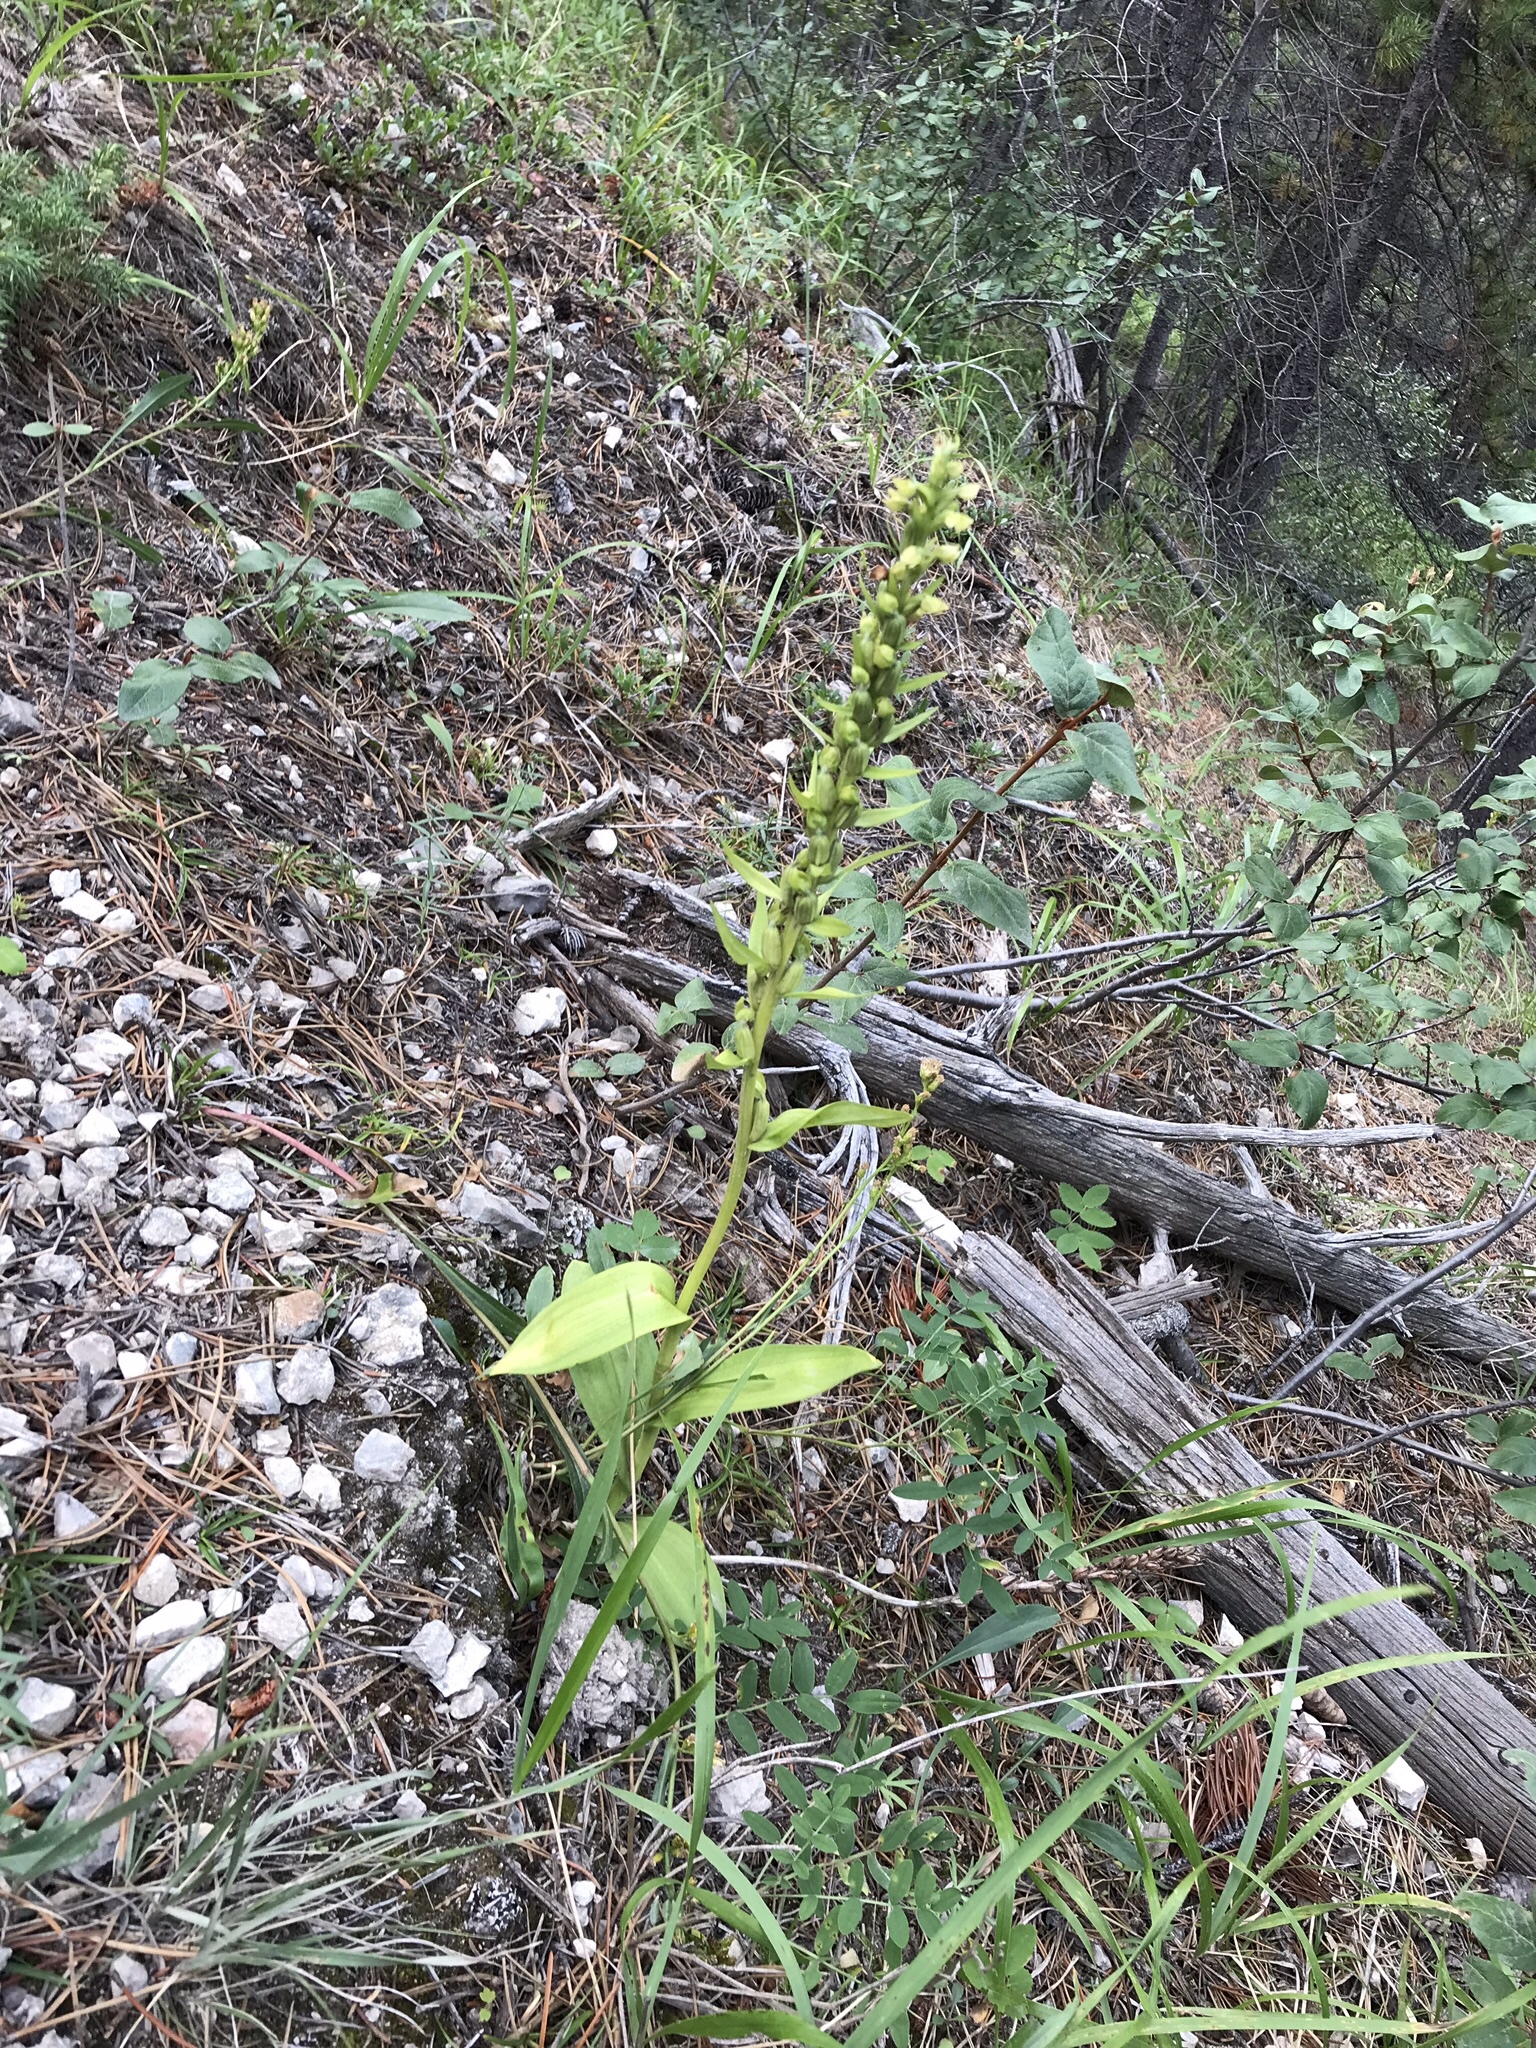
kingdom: Plantae
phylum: Tracheophyta
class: Liliopsida
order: Asparagales
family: Orchidaceae
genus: Dactylorhiza
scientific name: Dactylorhiza viridis
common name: Longbract frog orchid
